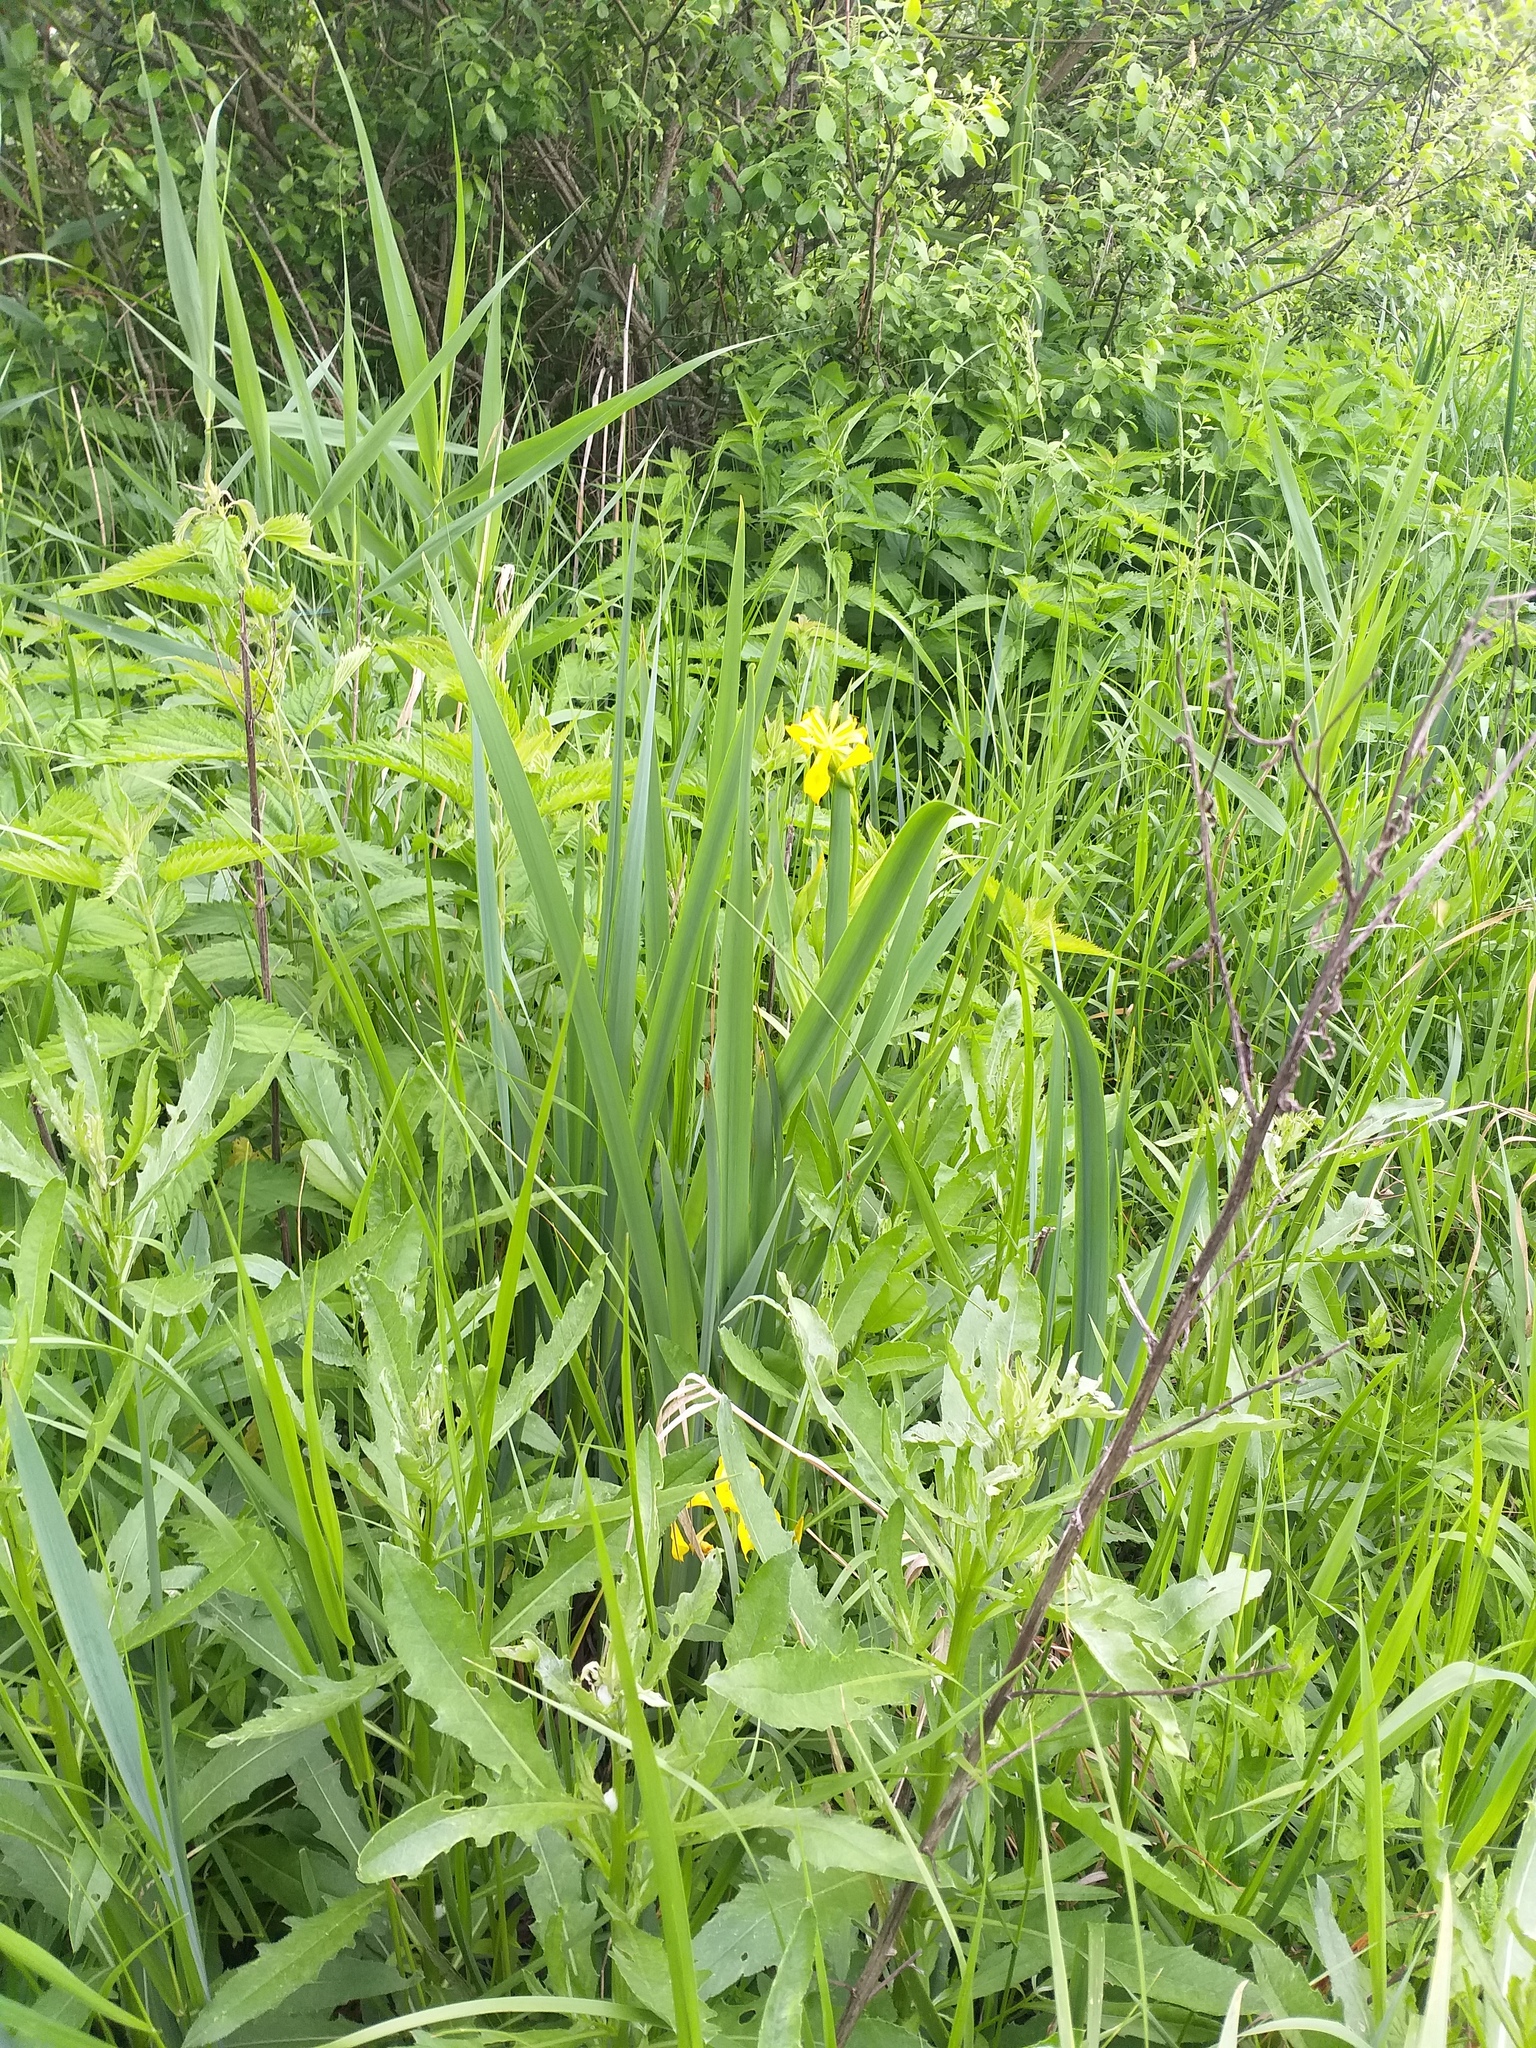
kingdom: Plantae
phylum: Tracheophyta
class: Liliopsida
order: Asparagales
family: Iridaceae
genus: Iris
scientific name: Iris pseudacorus
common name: Yellow flag
